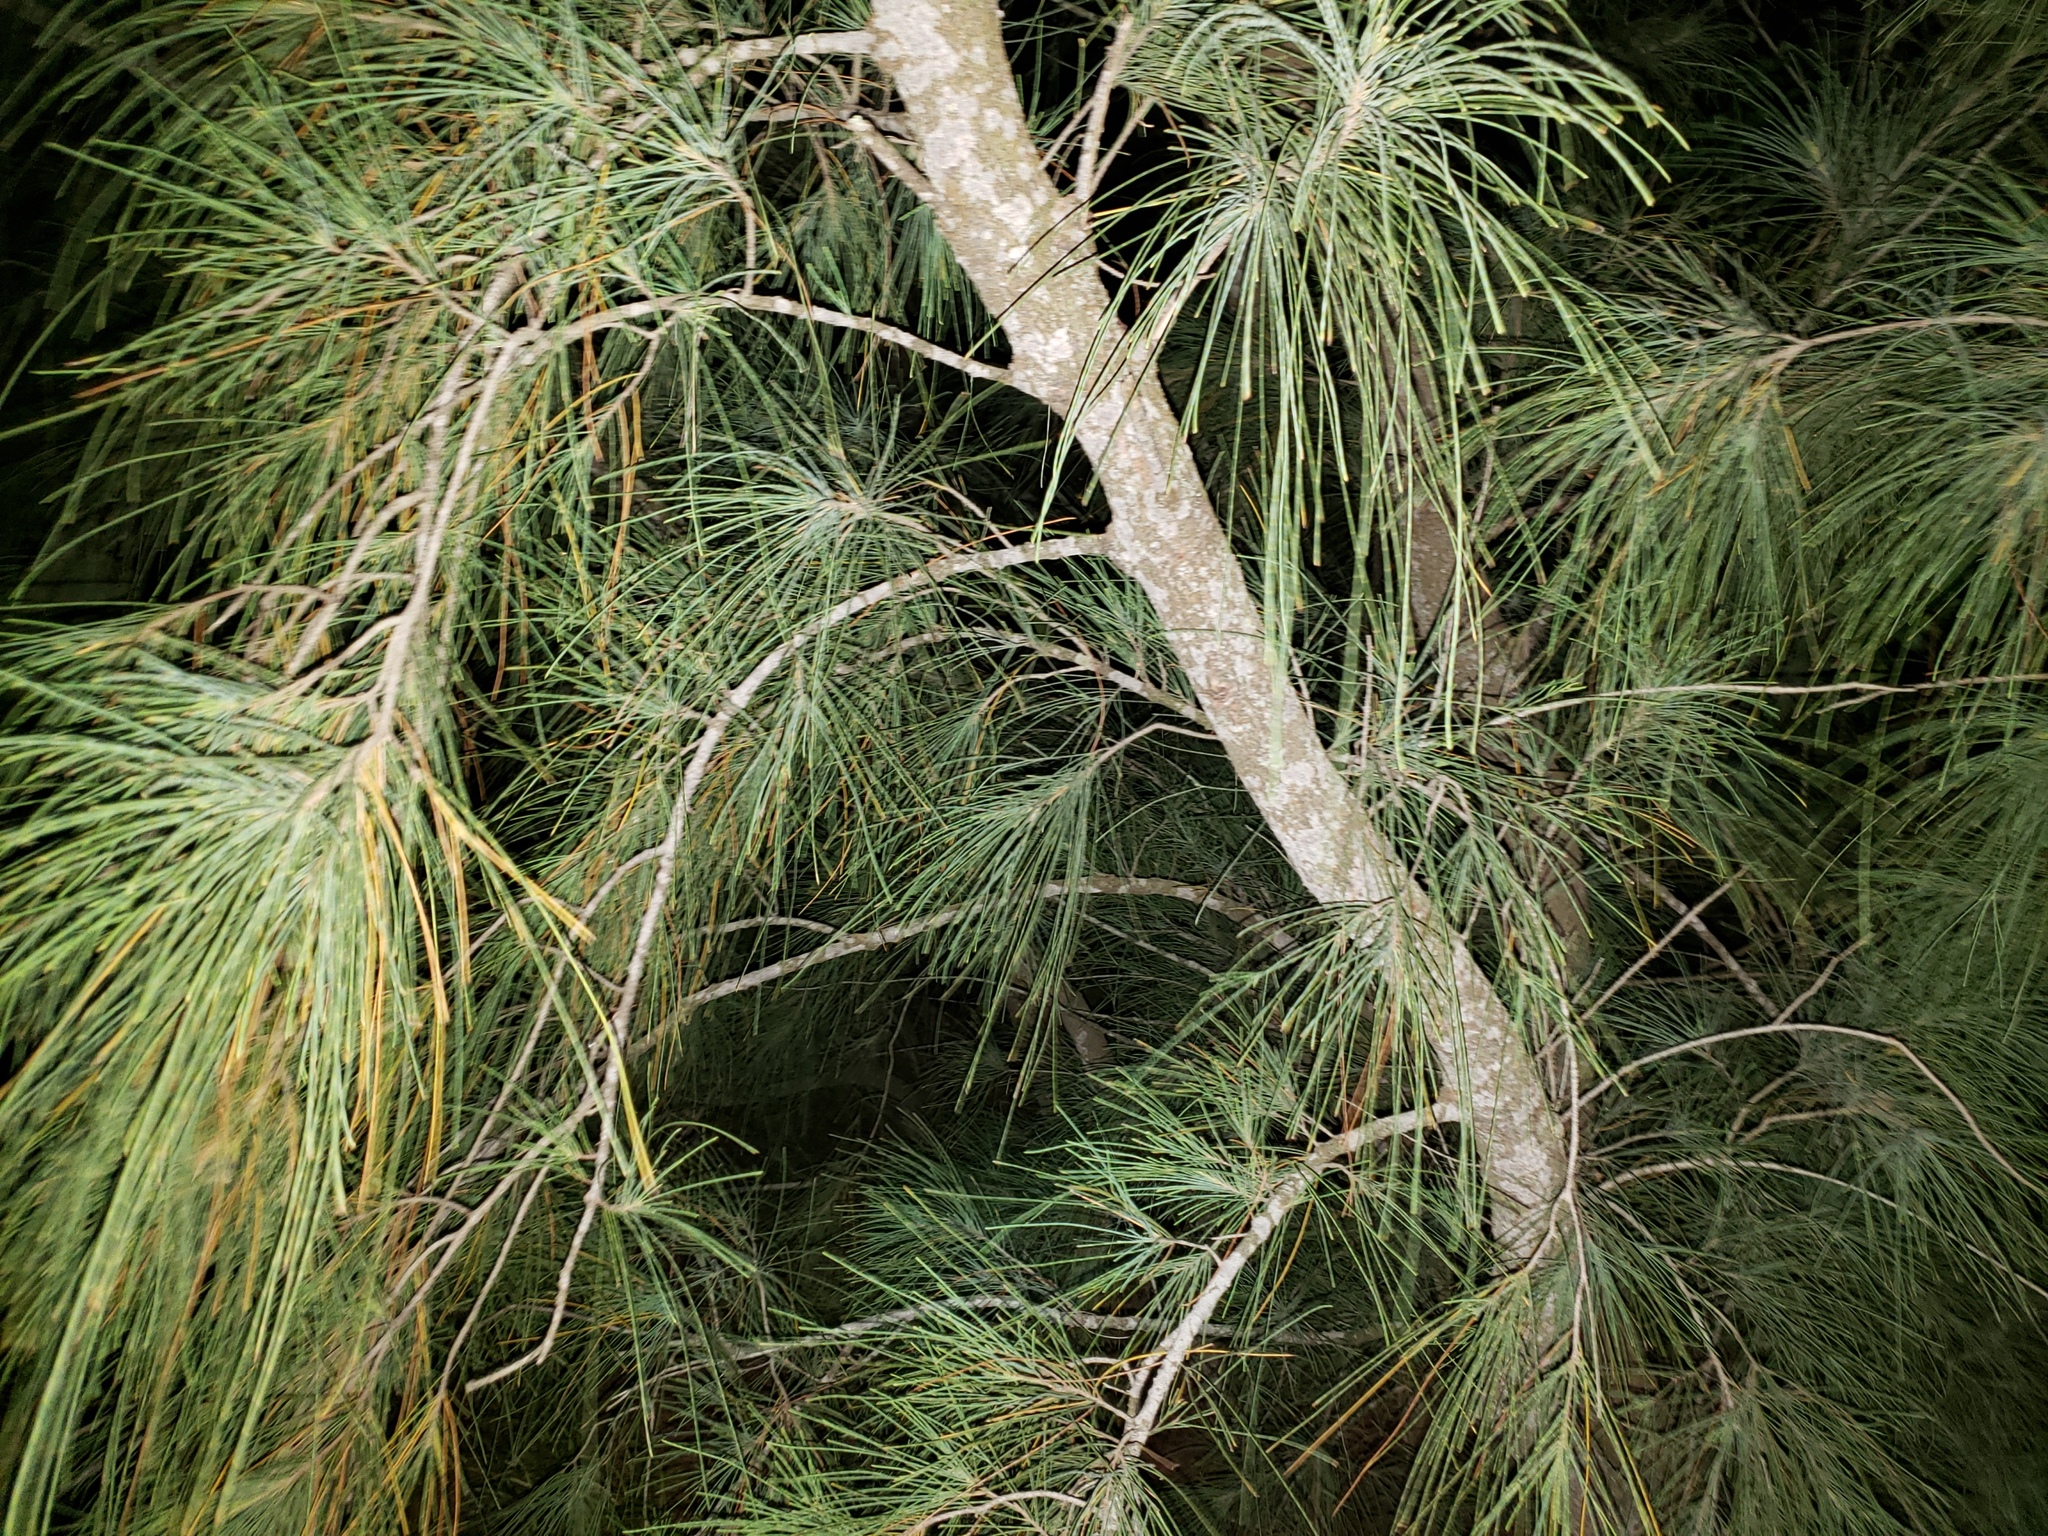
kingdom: Plantae
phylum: Tracheophyta
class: Magnoliopsida
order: Fagales
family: Casuarinaceae
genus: Casuarina
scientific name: Casuarina equisetifolia
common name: Beach sheoak
